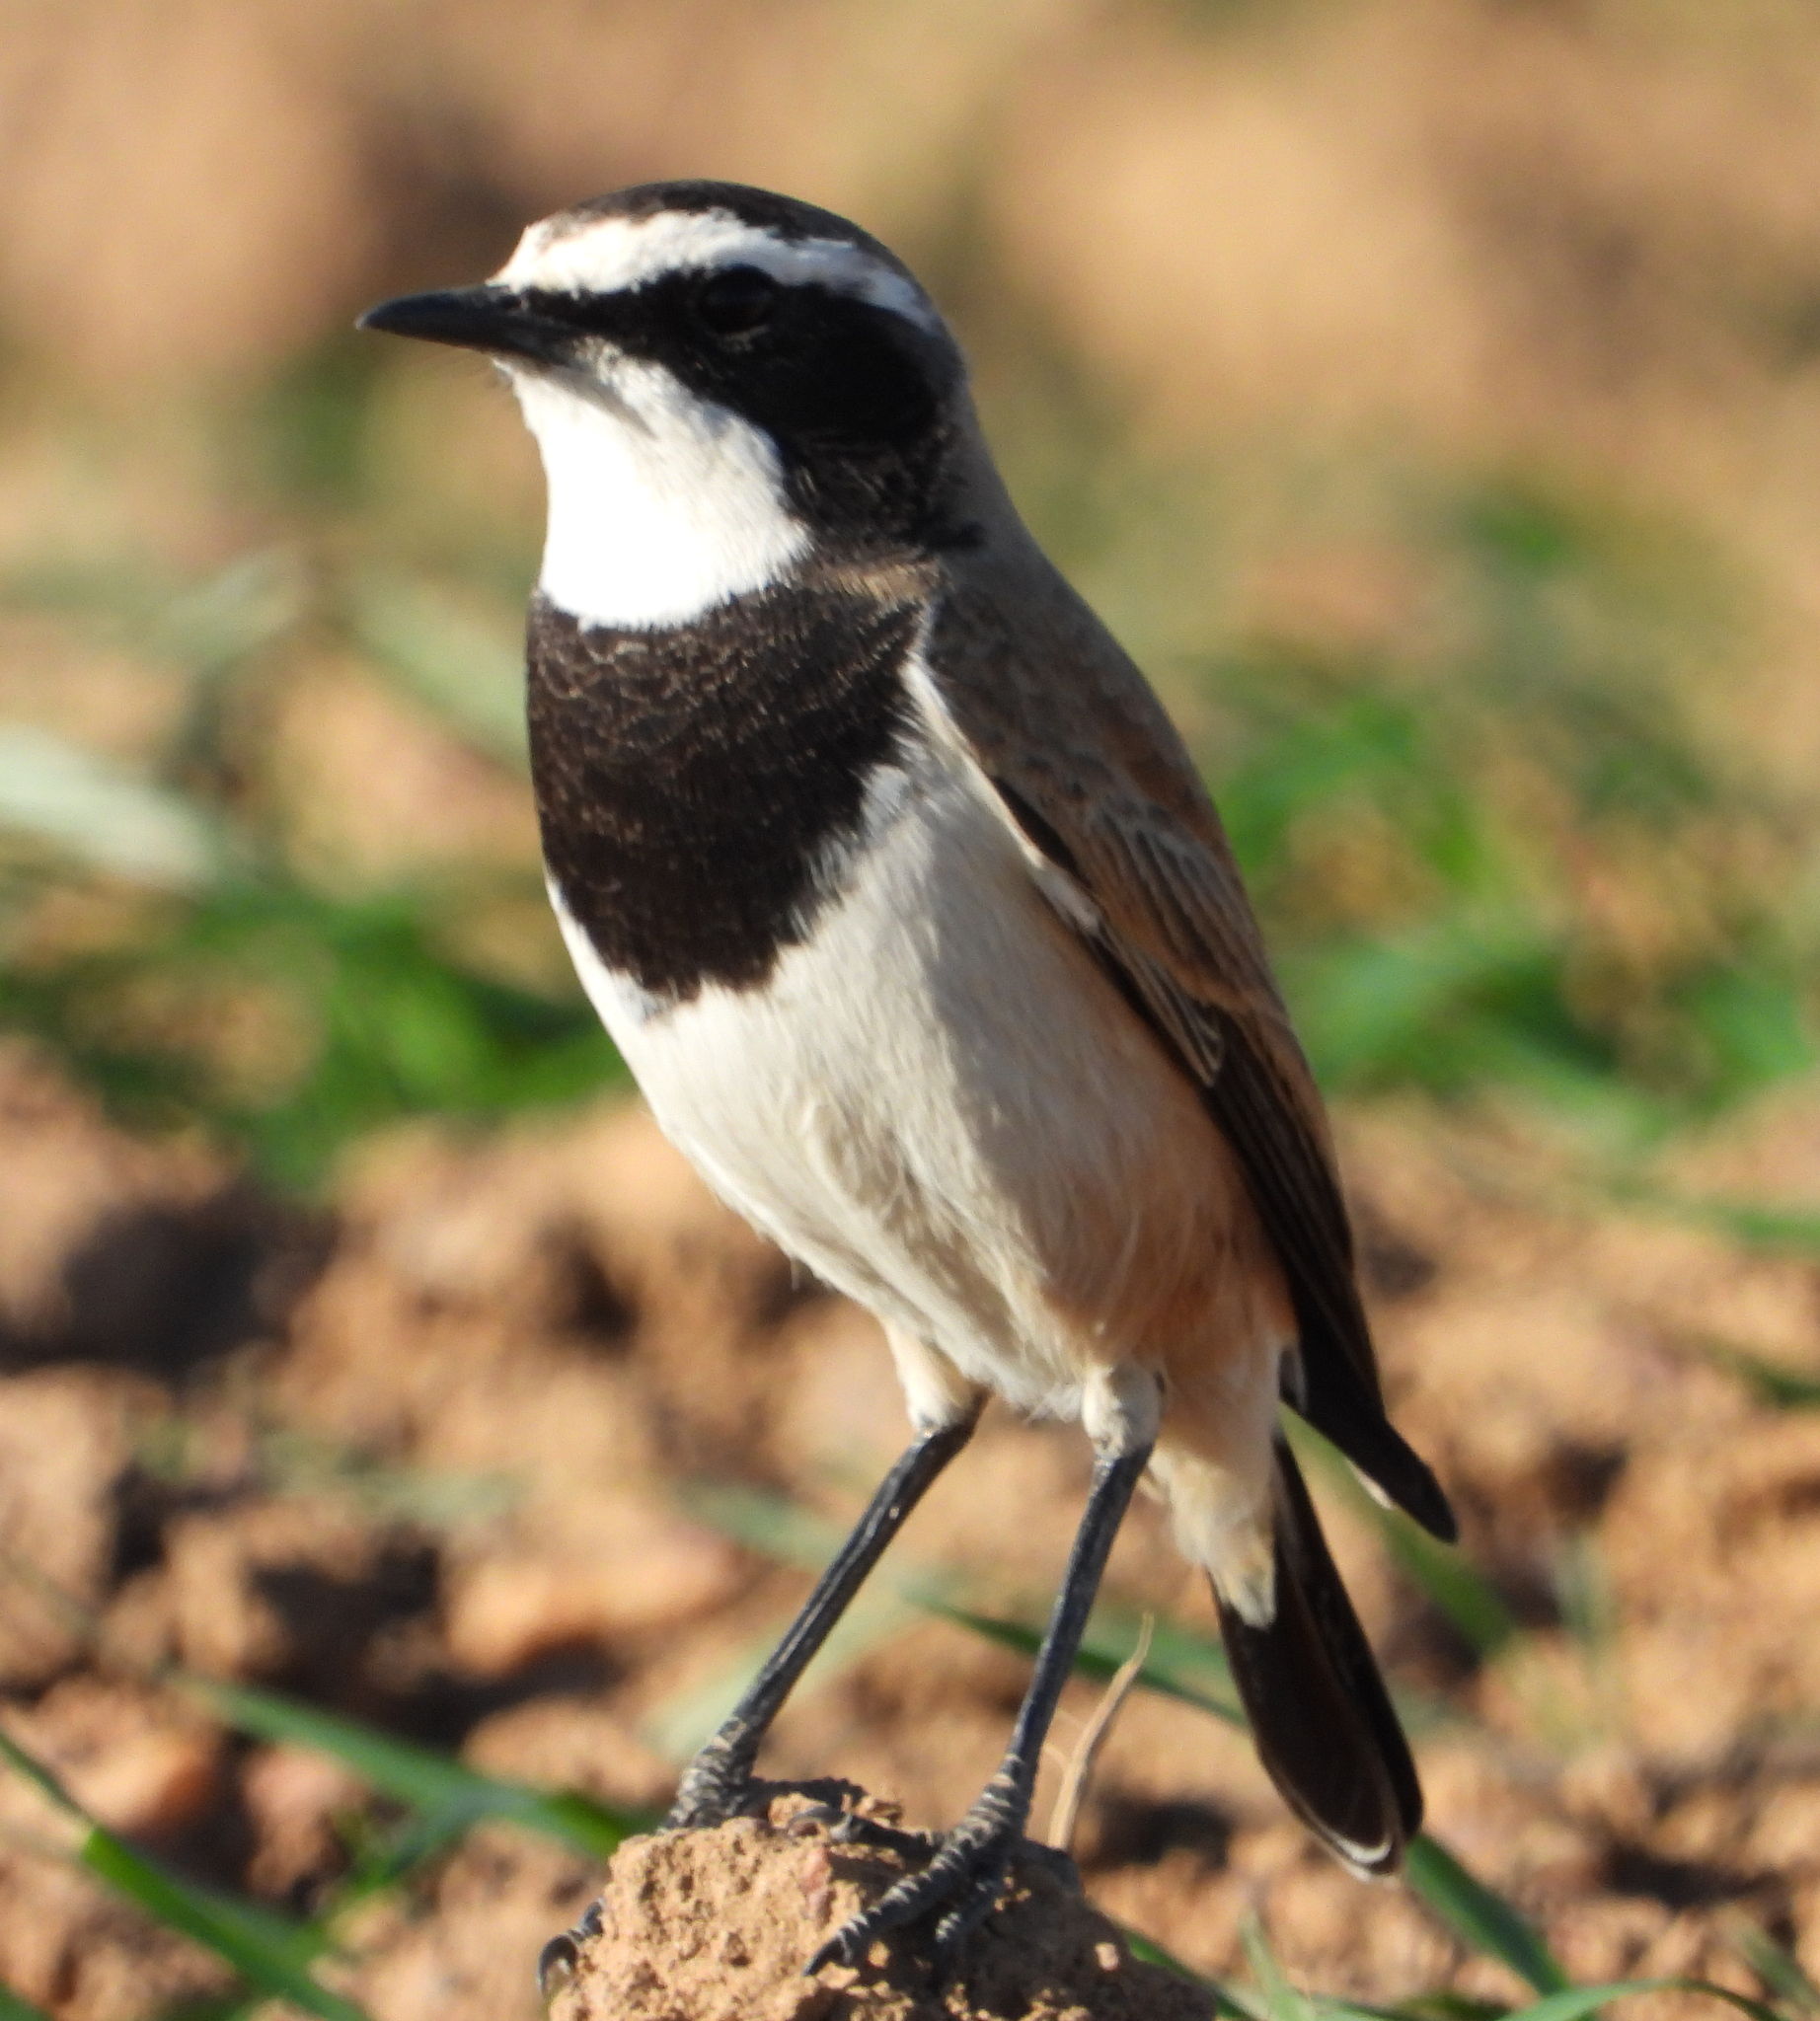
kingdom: Animalia
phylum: Chordata
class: Aves
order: Passeriformes
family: Muscicapidae
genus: Oenanthe
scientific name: Oenanthe pileata
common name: Capped wheatear
